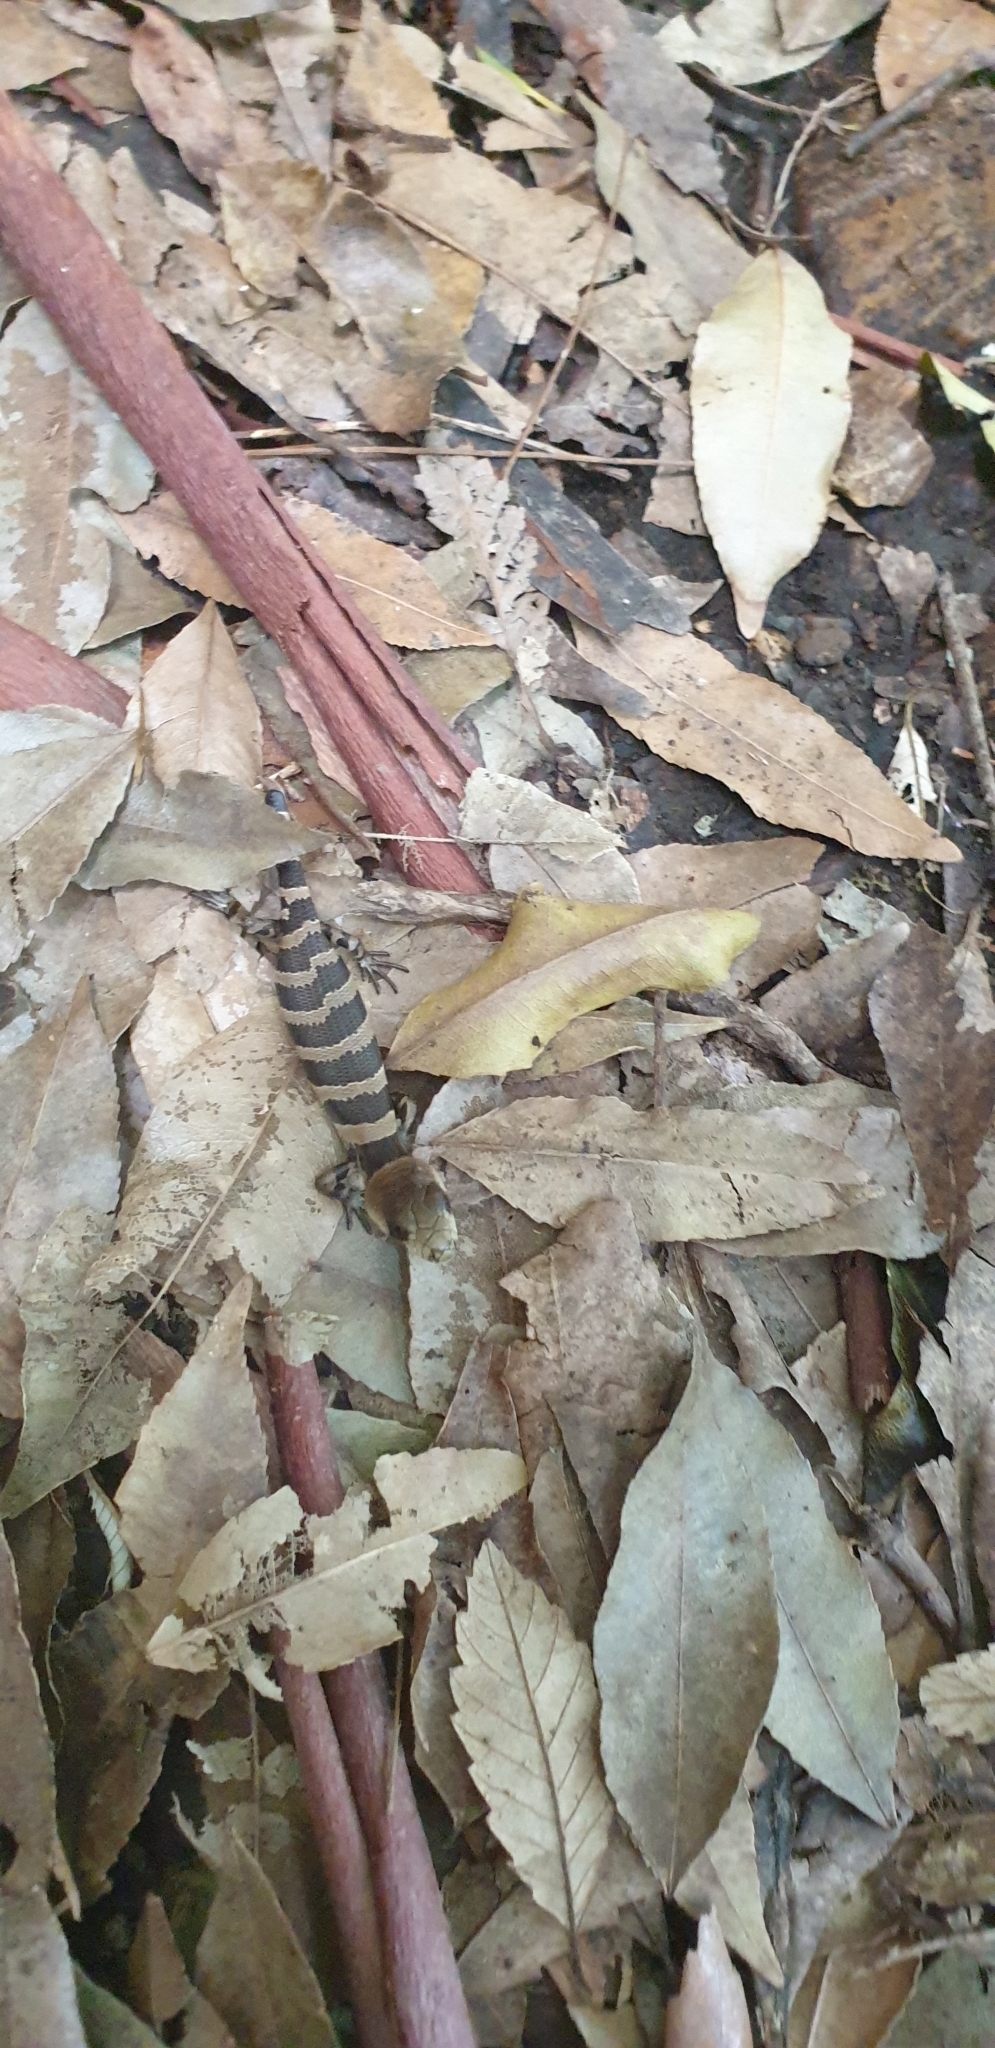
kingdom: Animalia
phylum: Chordata
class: Squamata
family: Scincidae
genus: Cyclodomorphus
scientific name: Cyclodomorphus gerrardii
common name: Pink-tongued lizard
